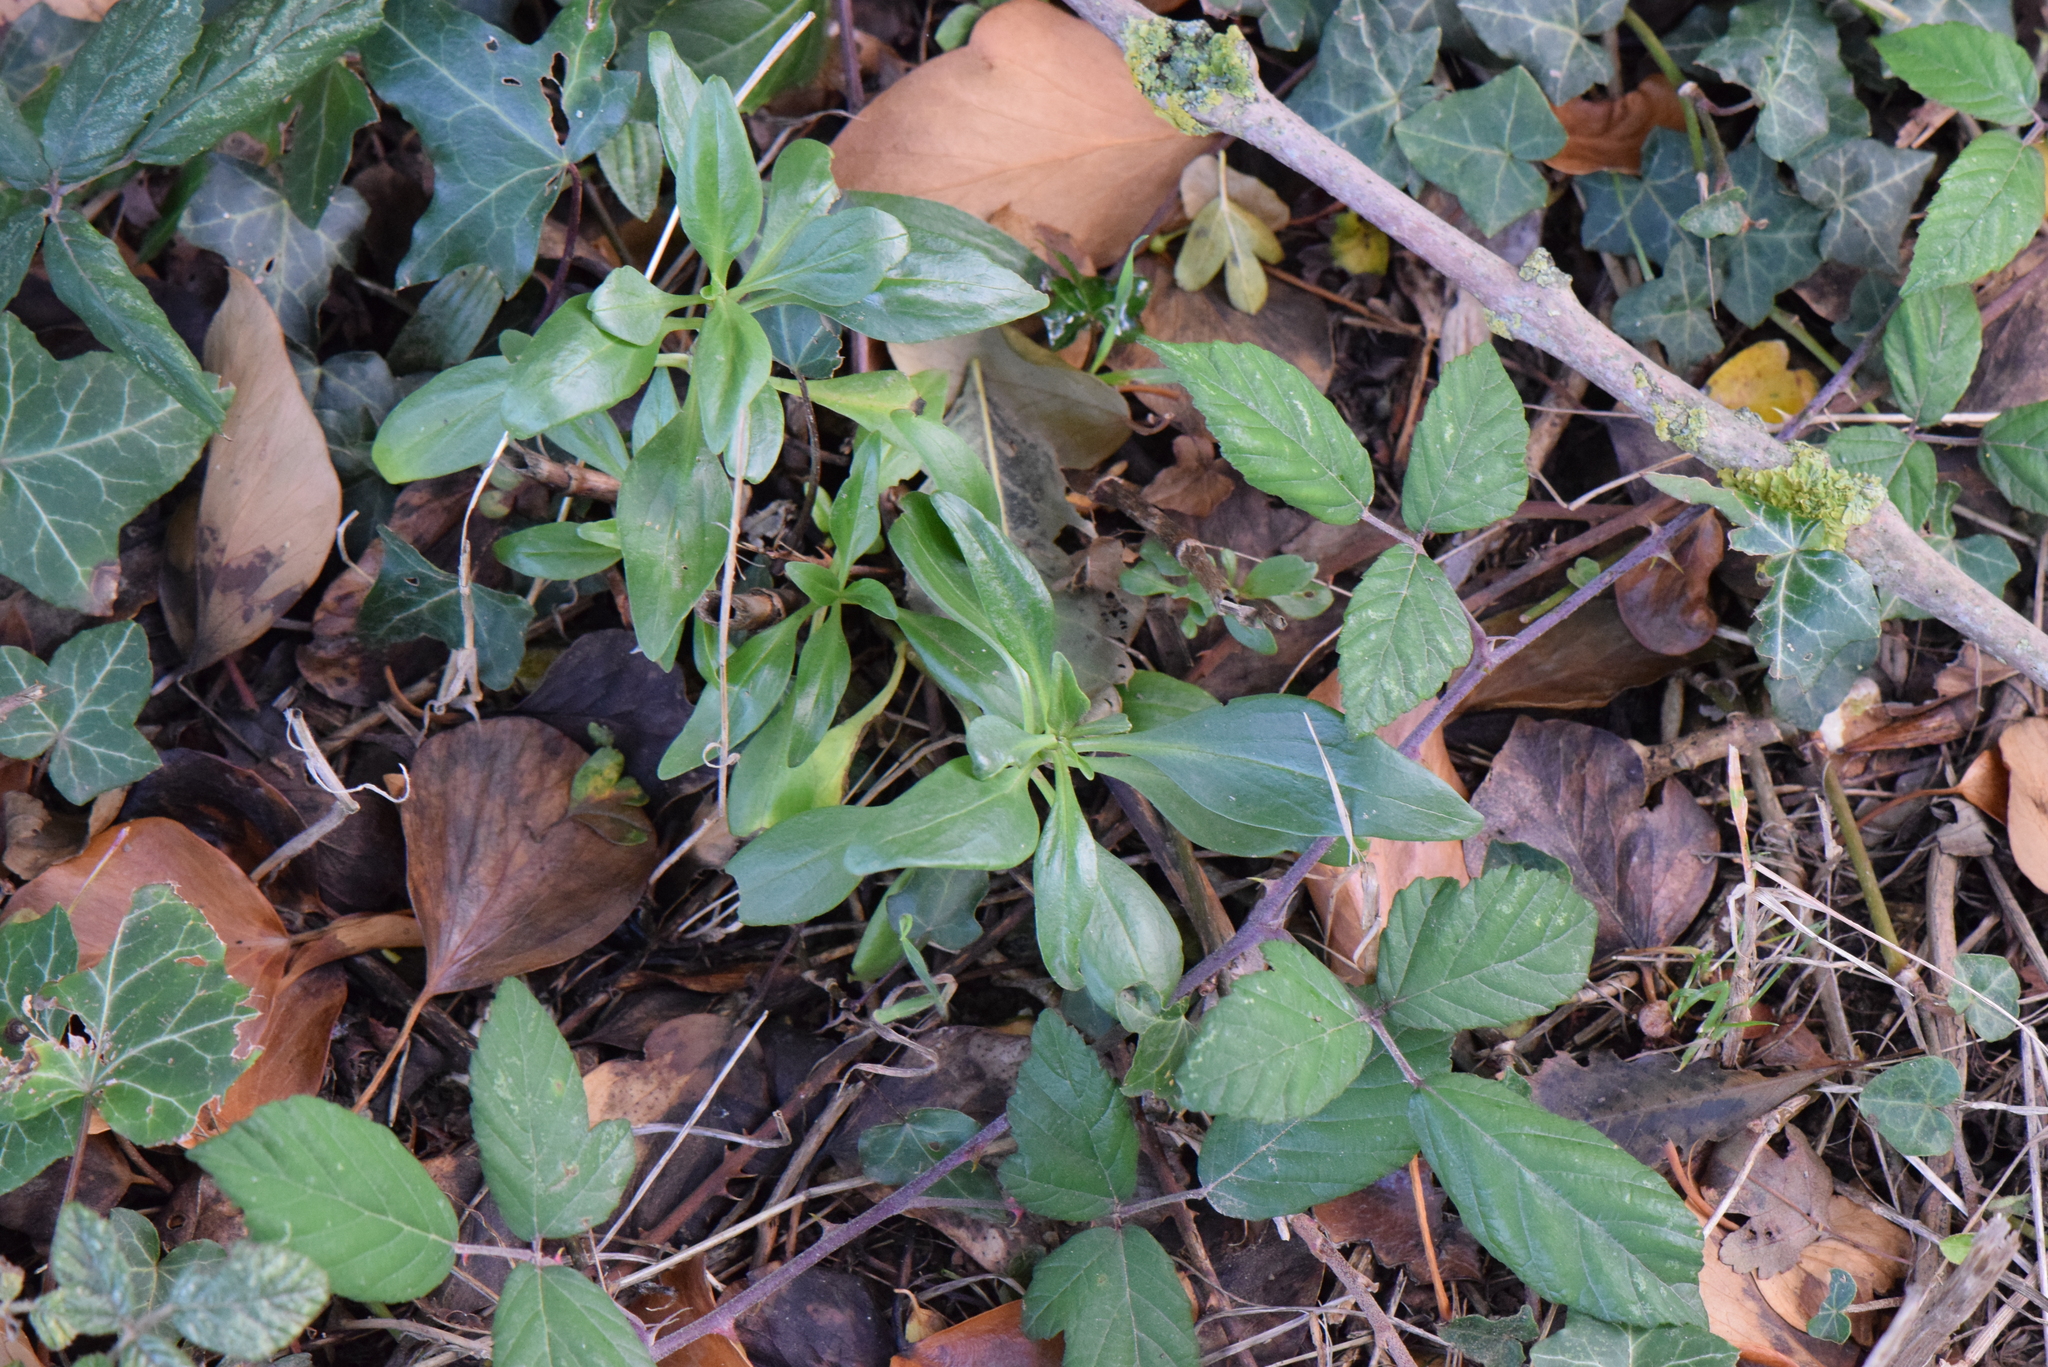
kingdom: Plantae
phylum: Tracheophyta
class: Magnoliopsida
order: Dipsacales
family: Caprifoliaceae
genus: Centranthus
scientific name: Centranthus ruber
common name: Red valerian
